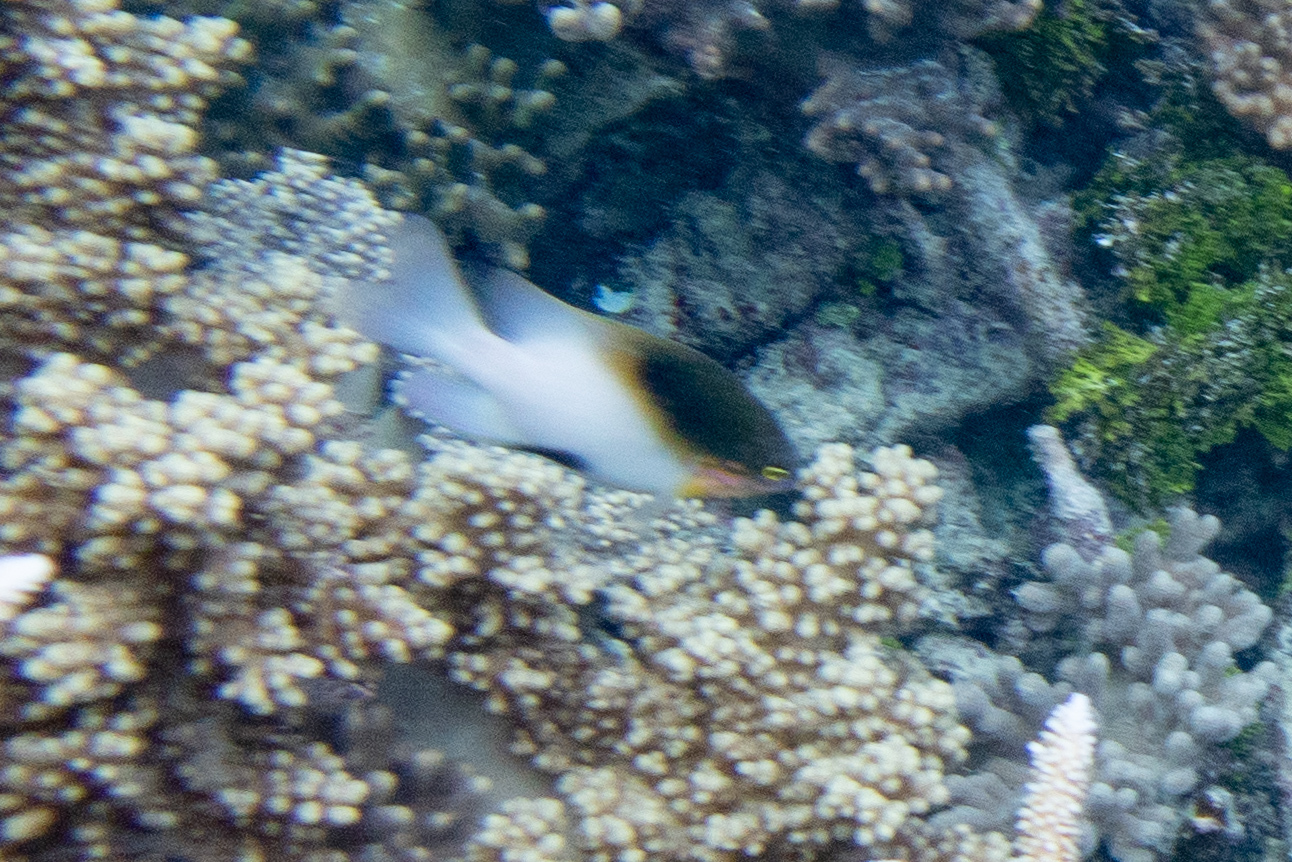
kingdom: Animalia
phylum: Chordata
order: Perciformes
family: Pomacentridae
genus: Dischistodus
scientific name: Dischistodus melanotus
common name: Black-vent damsel
